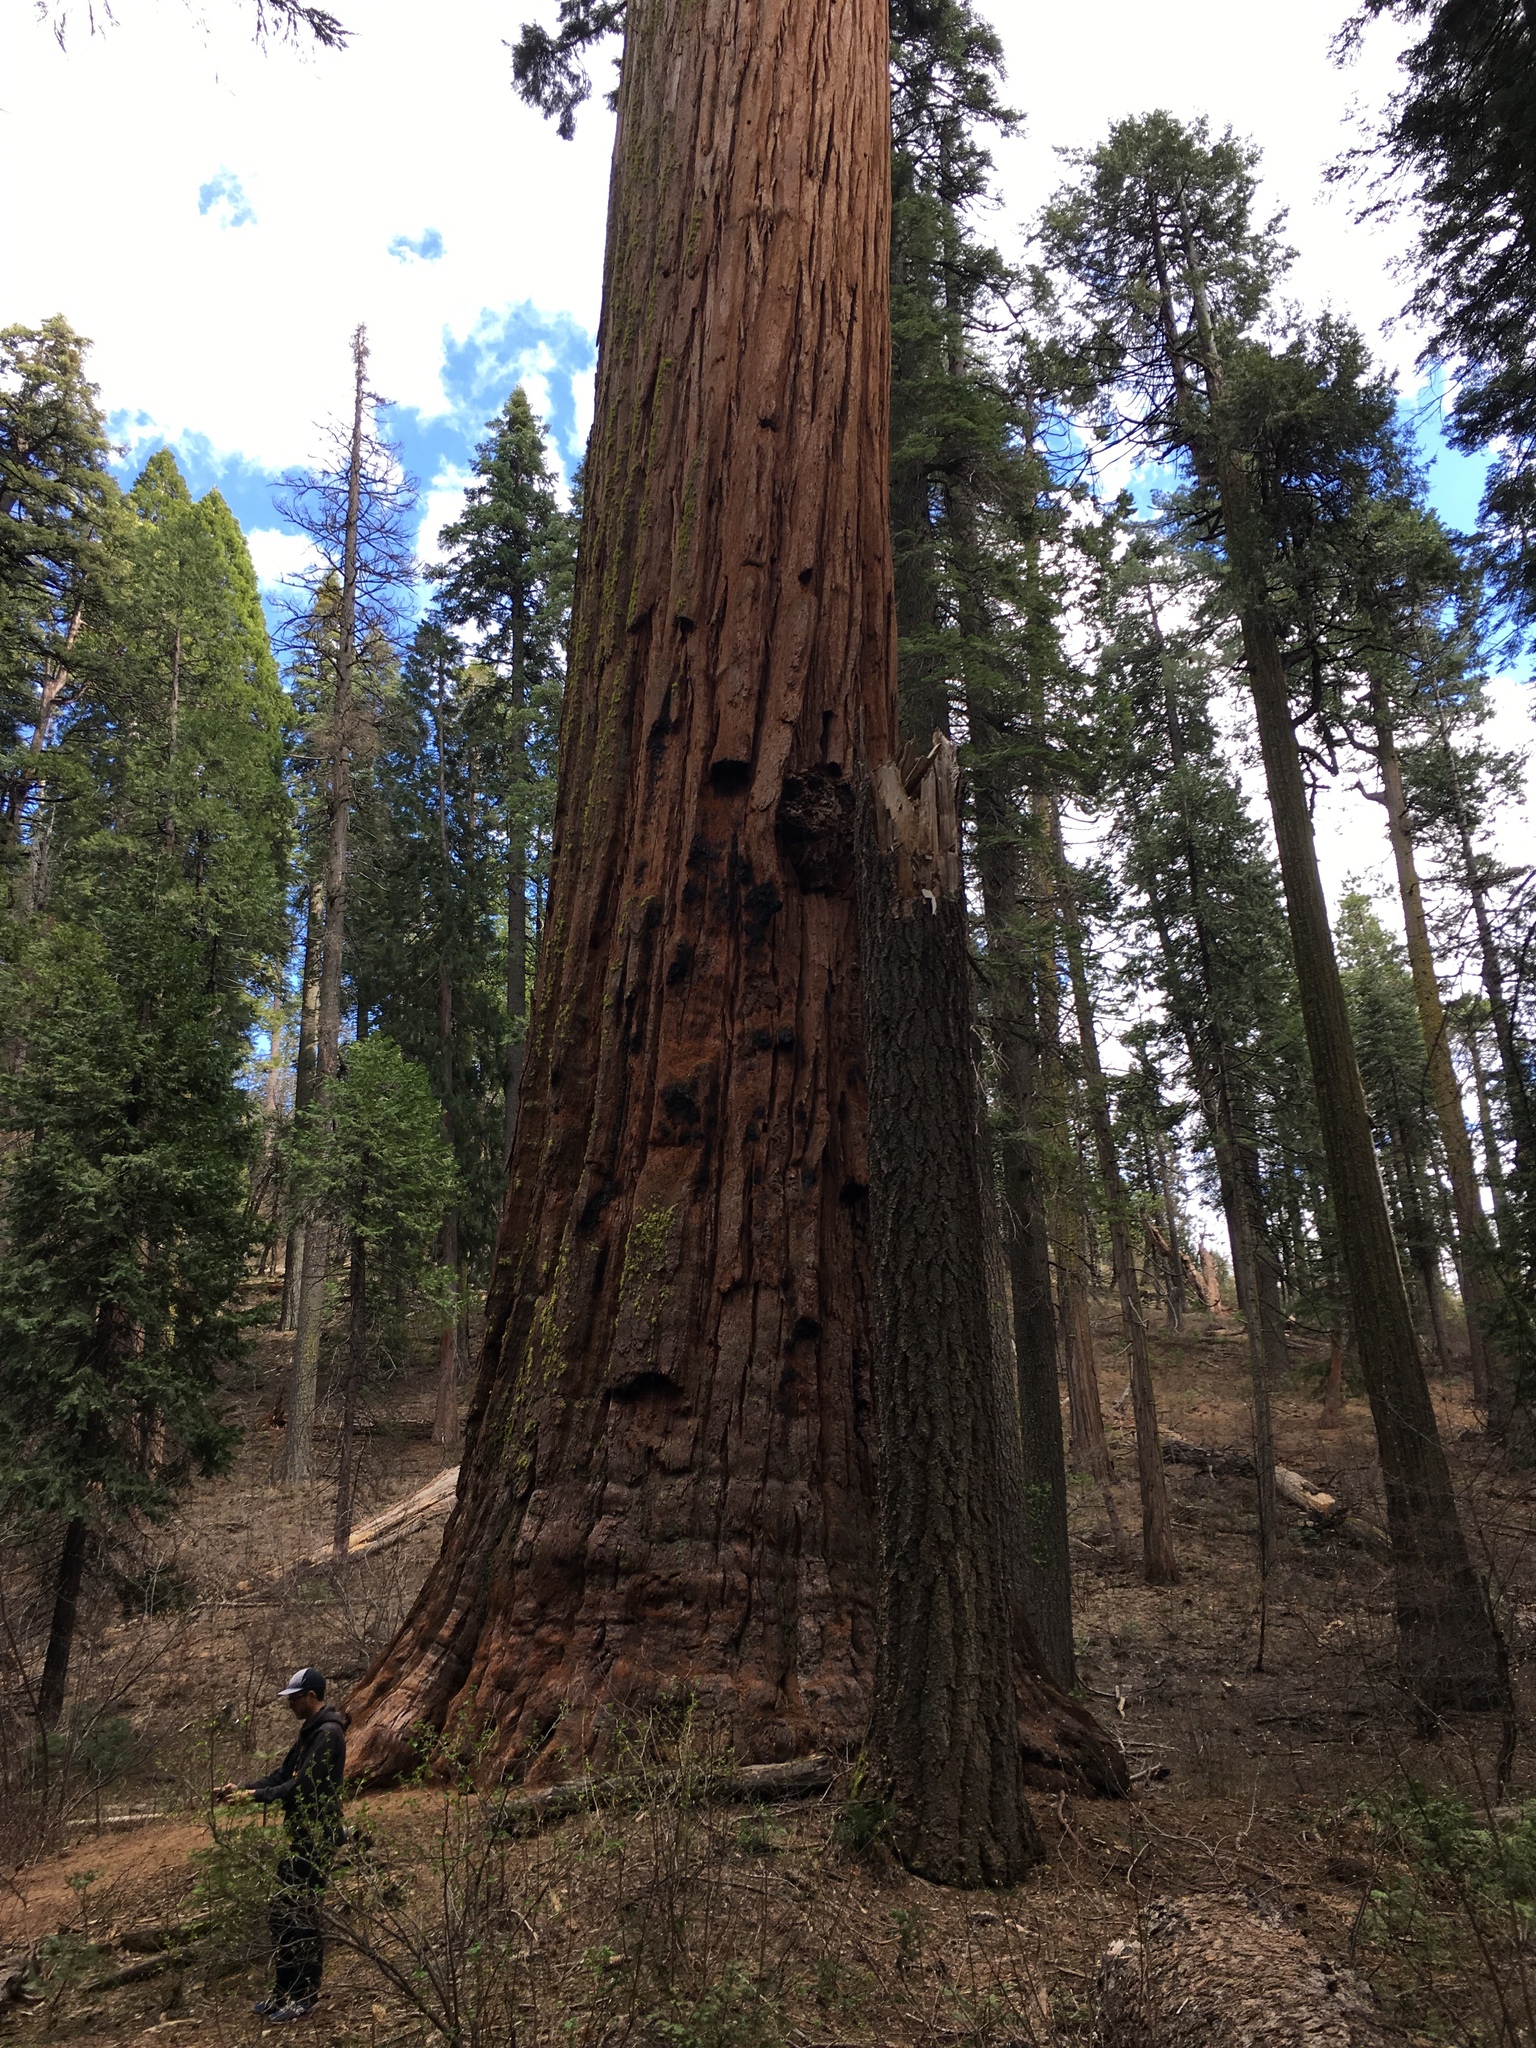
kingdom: Plantae
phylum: Tracheophyta
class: Pinopsida
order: Pinales
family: Cupressaceae
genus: Sequoiadendron
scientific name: Sequoiadendron giganteum
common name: Wellingtonia
